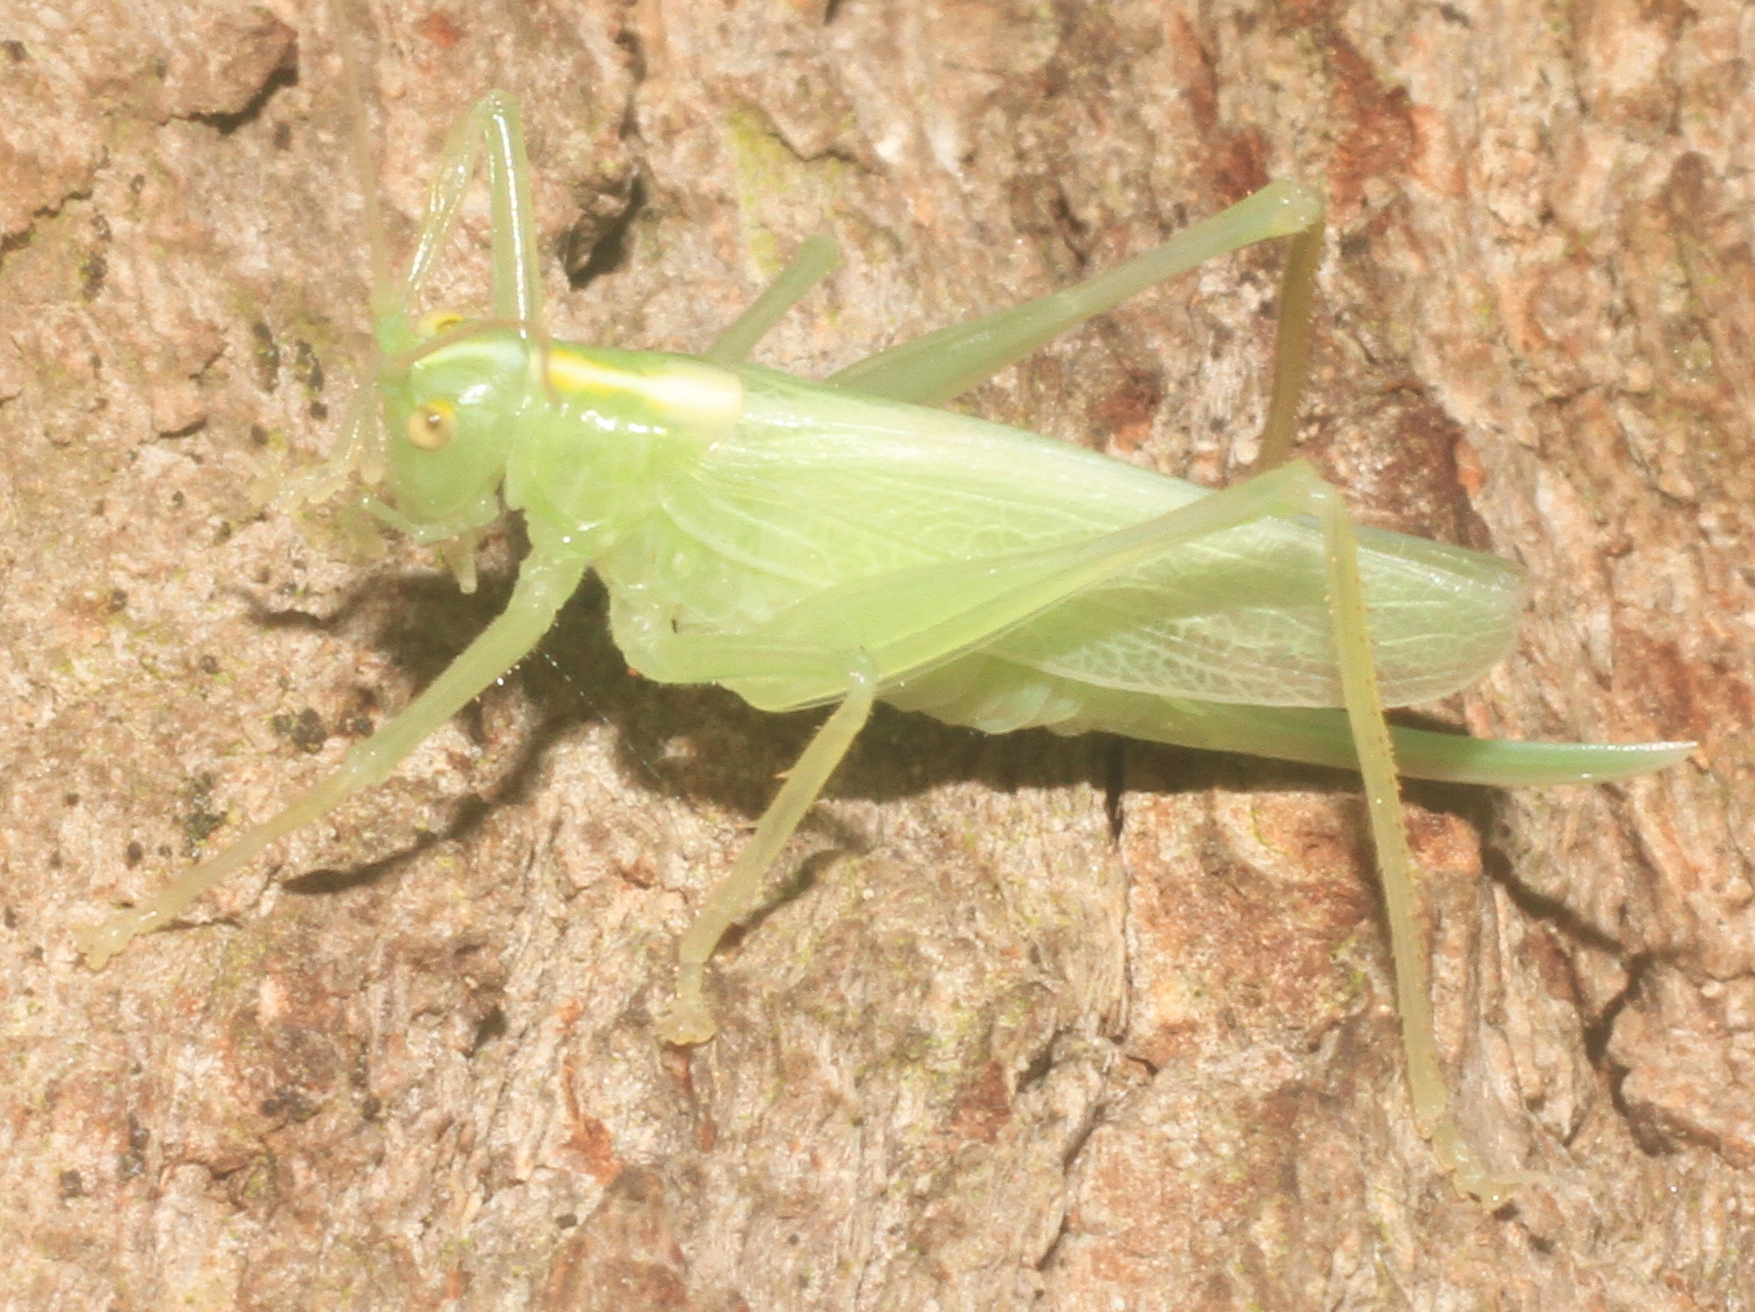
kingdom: Animalia
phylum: Arthropoda
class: Insecta
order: Orthoptera
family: Tettigoniidae
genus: Meconema
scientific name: Meconema thalassinum
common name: Oak bush-cricket
